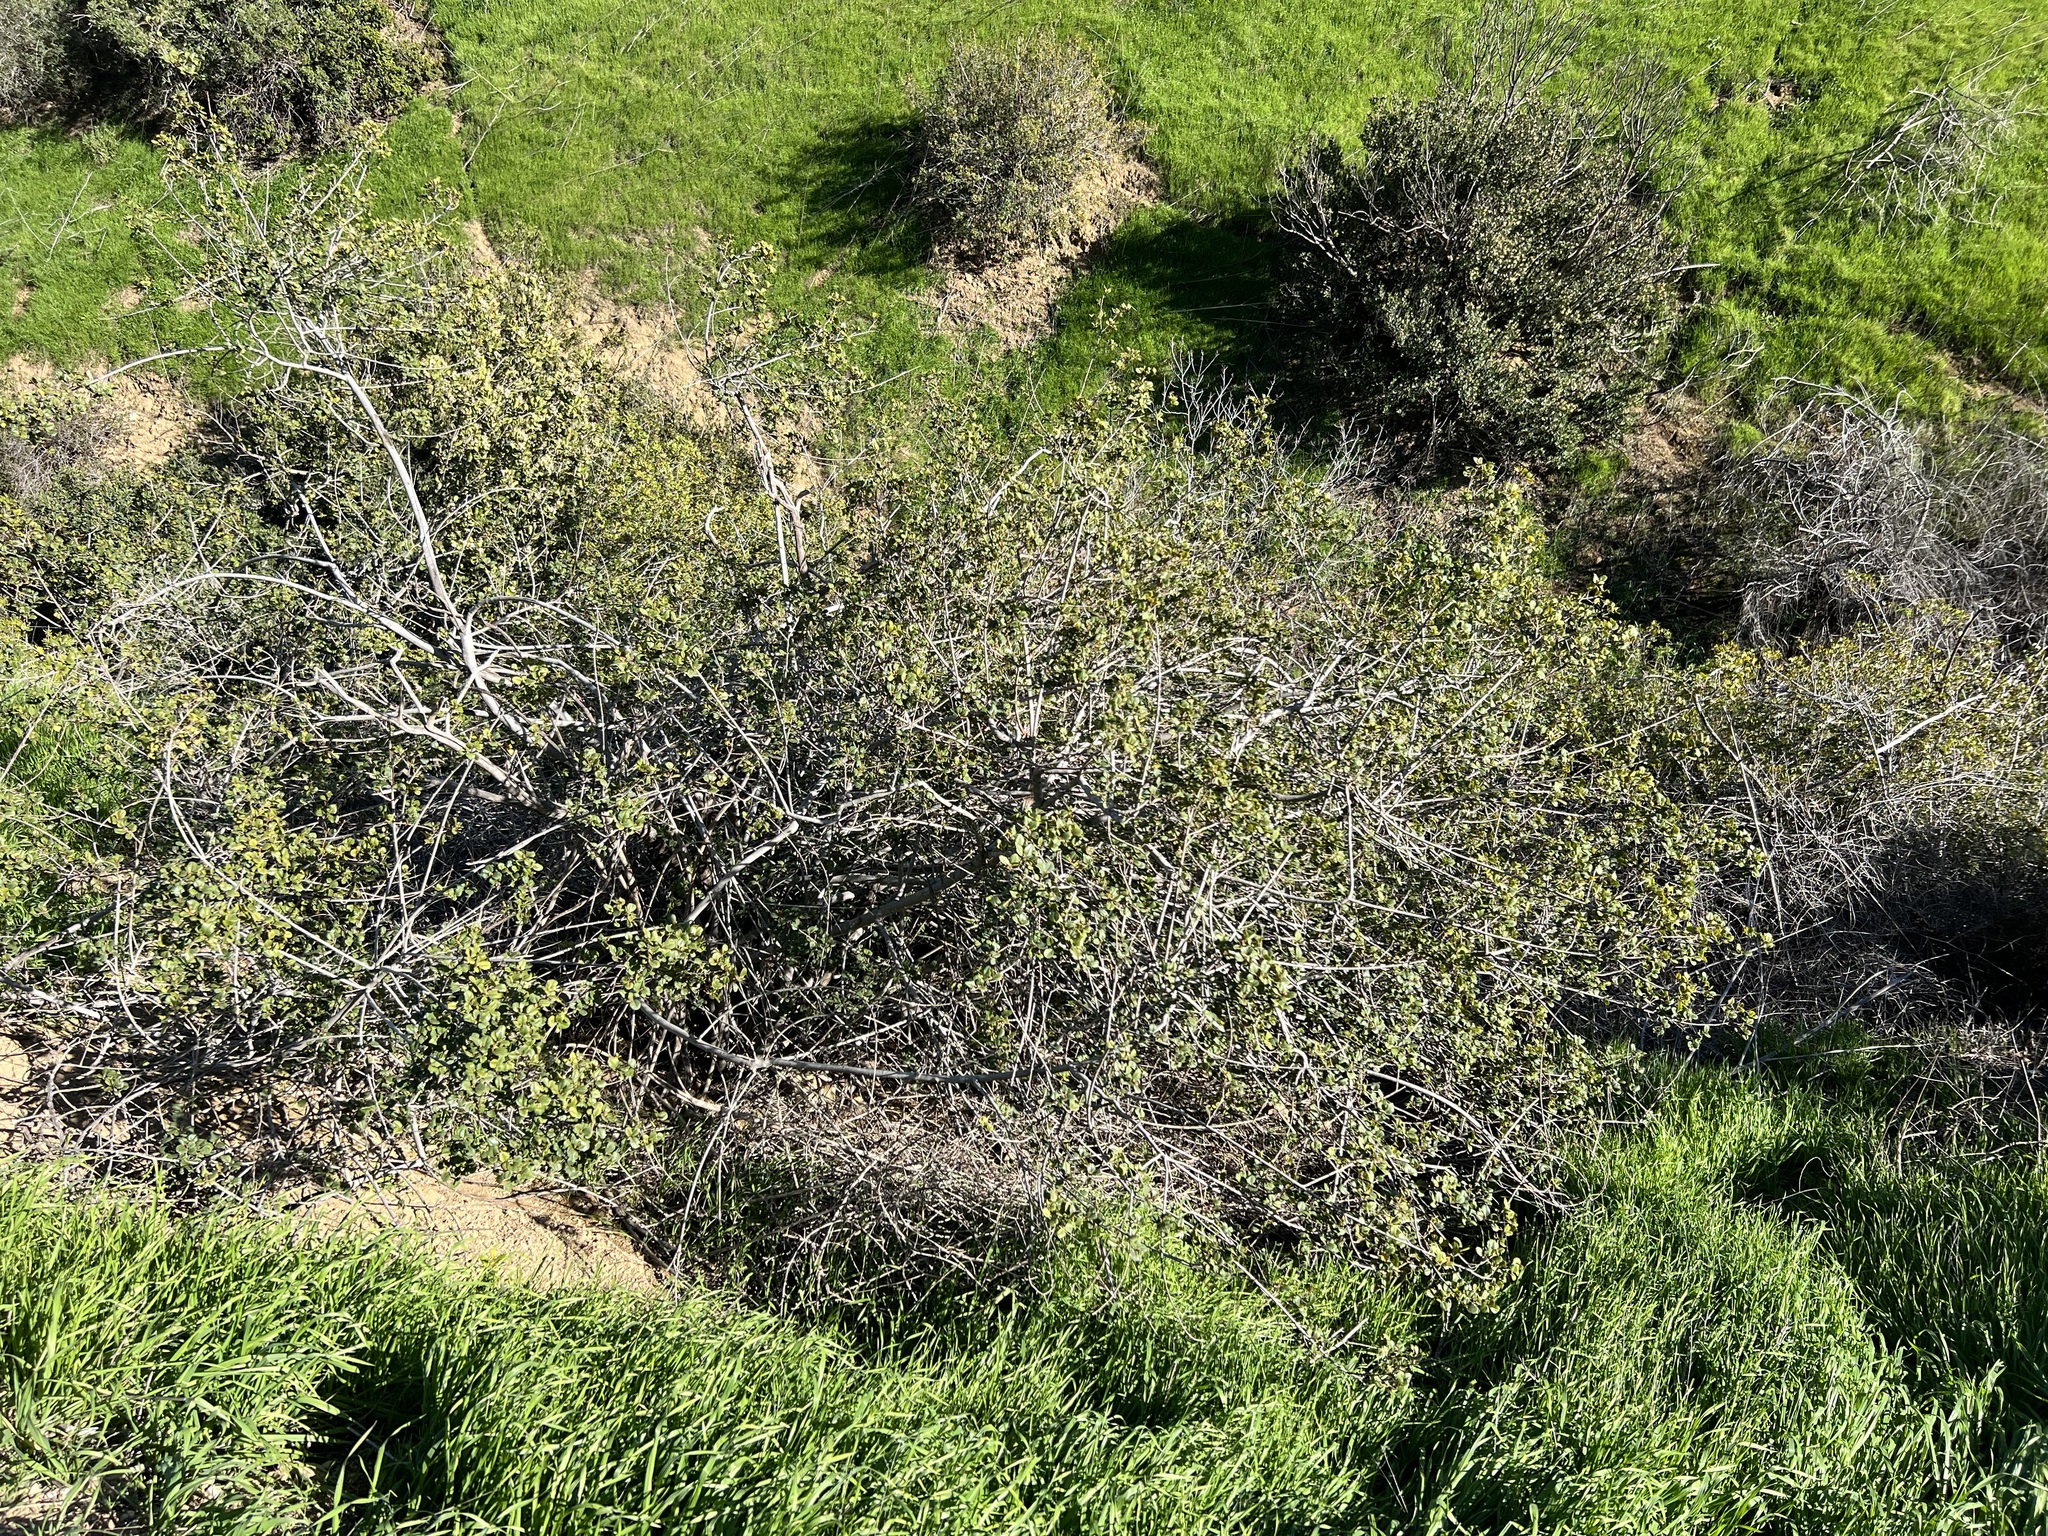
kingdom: Plantae
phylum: Tracheophyta
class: Magnoliopsida
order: Rosales
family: Rhamnaceae
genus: Endotropis
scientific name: Endotropis crocea
